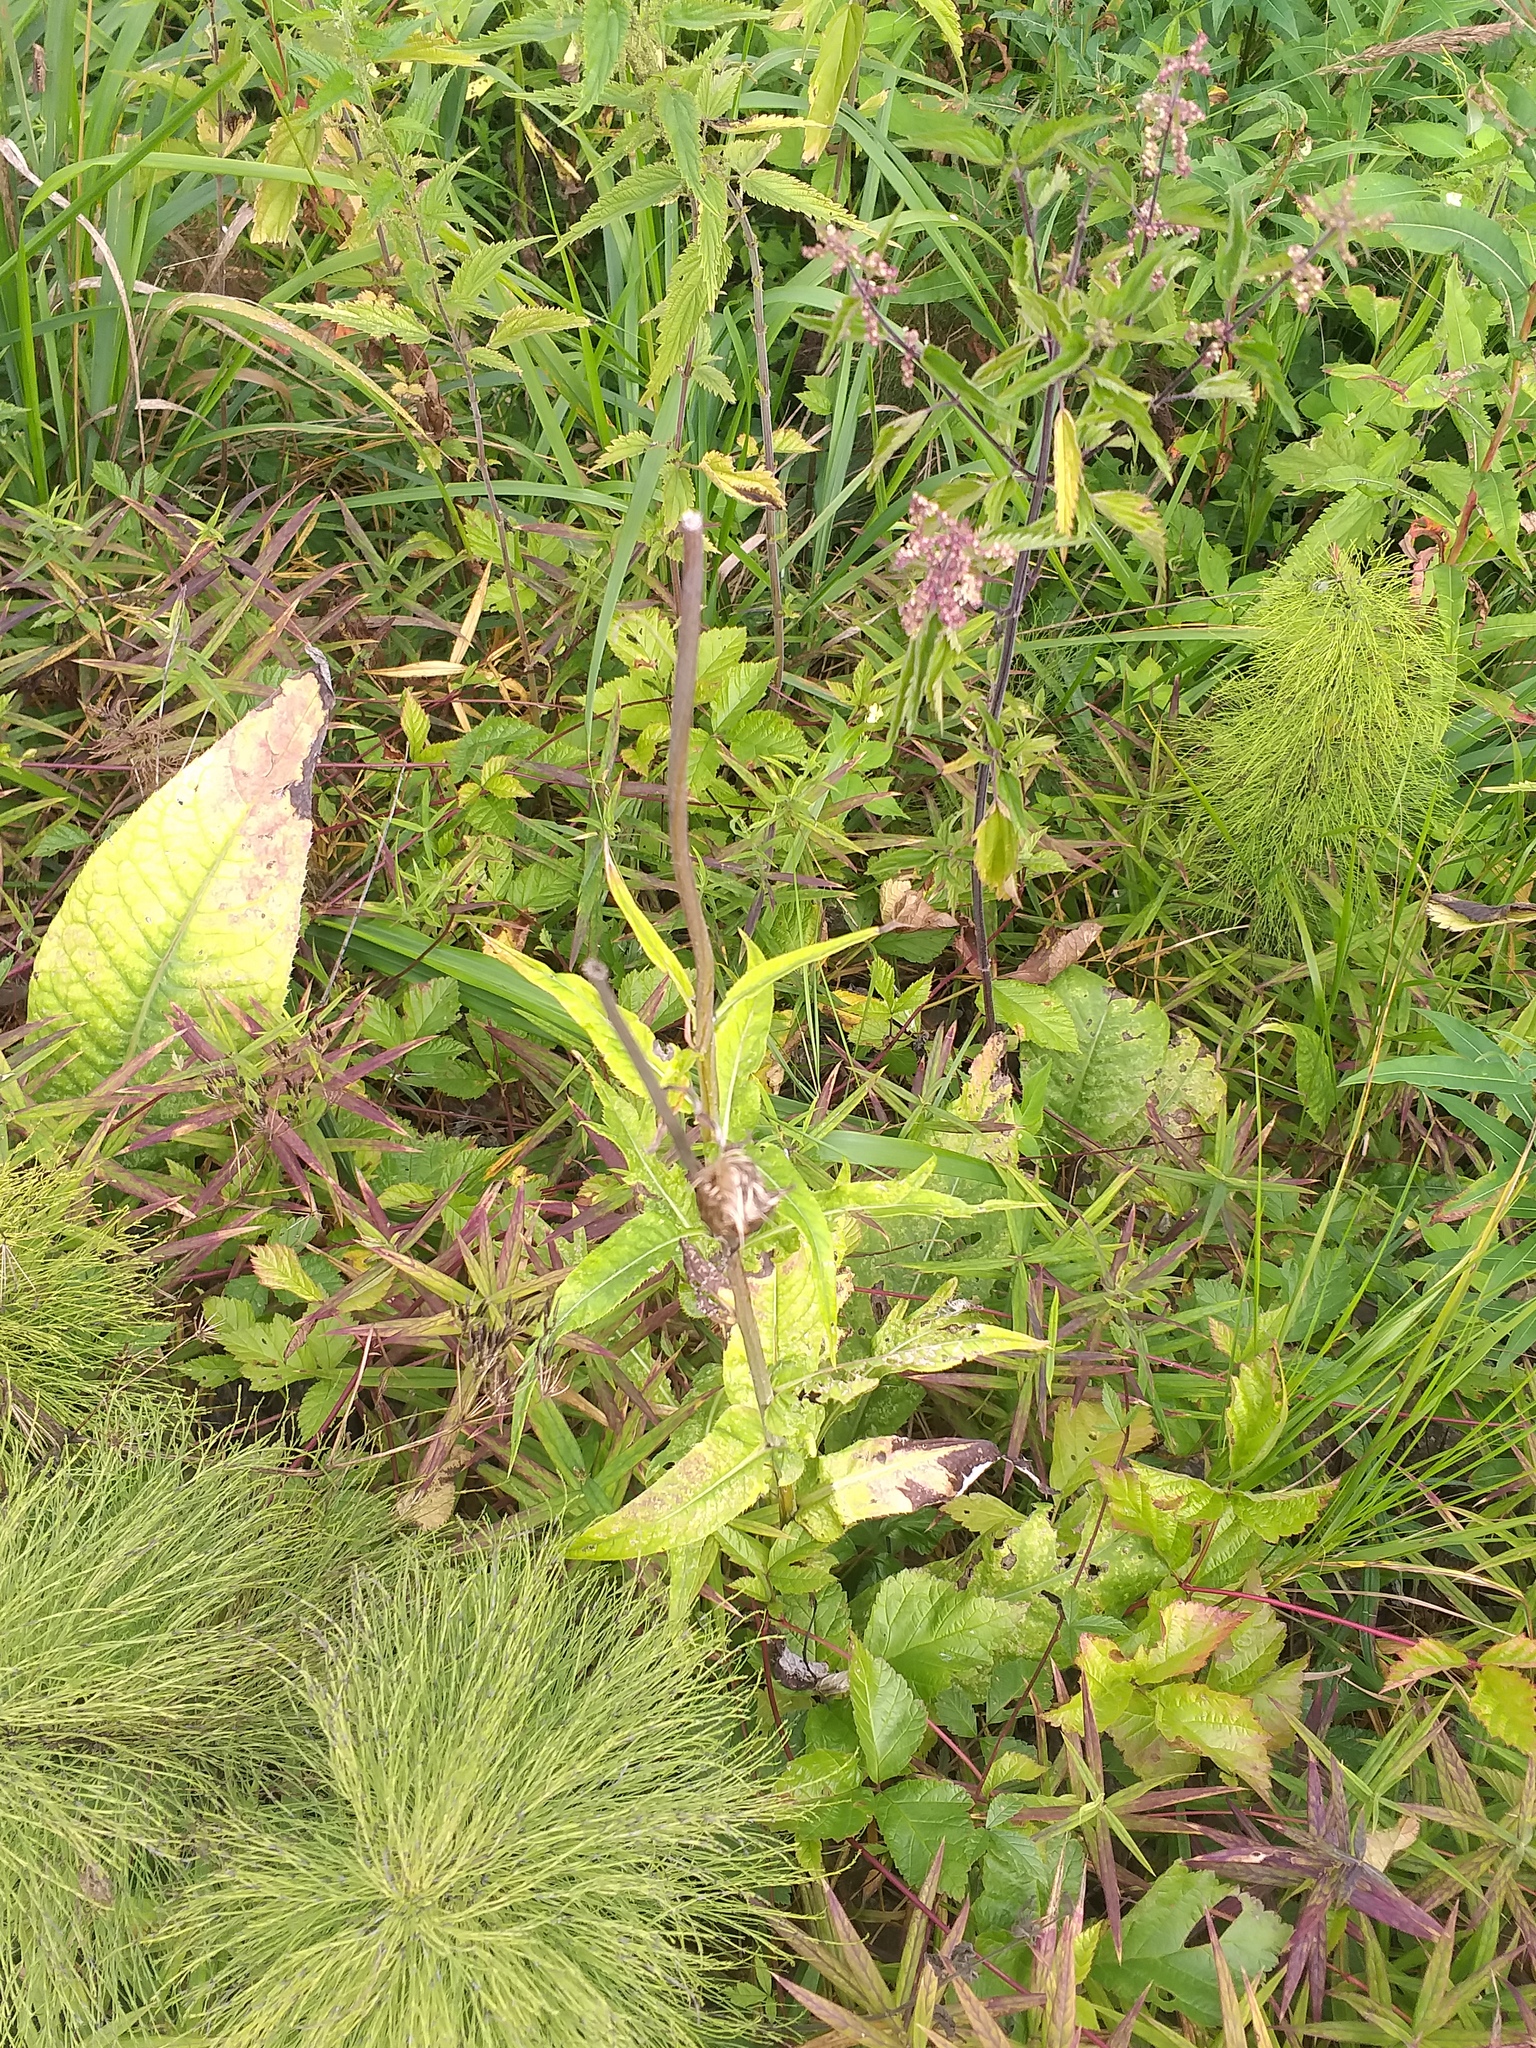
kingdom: Plantae
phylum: Tracheophyta
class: Magnoliopsida
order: Asterales
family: Asteraceae
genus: Cirsium
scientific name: Cirsium heterophyllum
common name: Melancholy thistle
